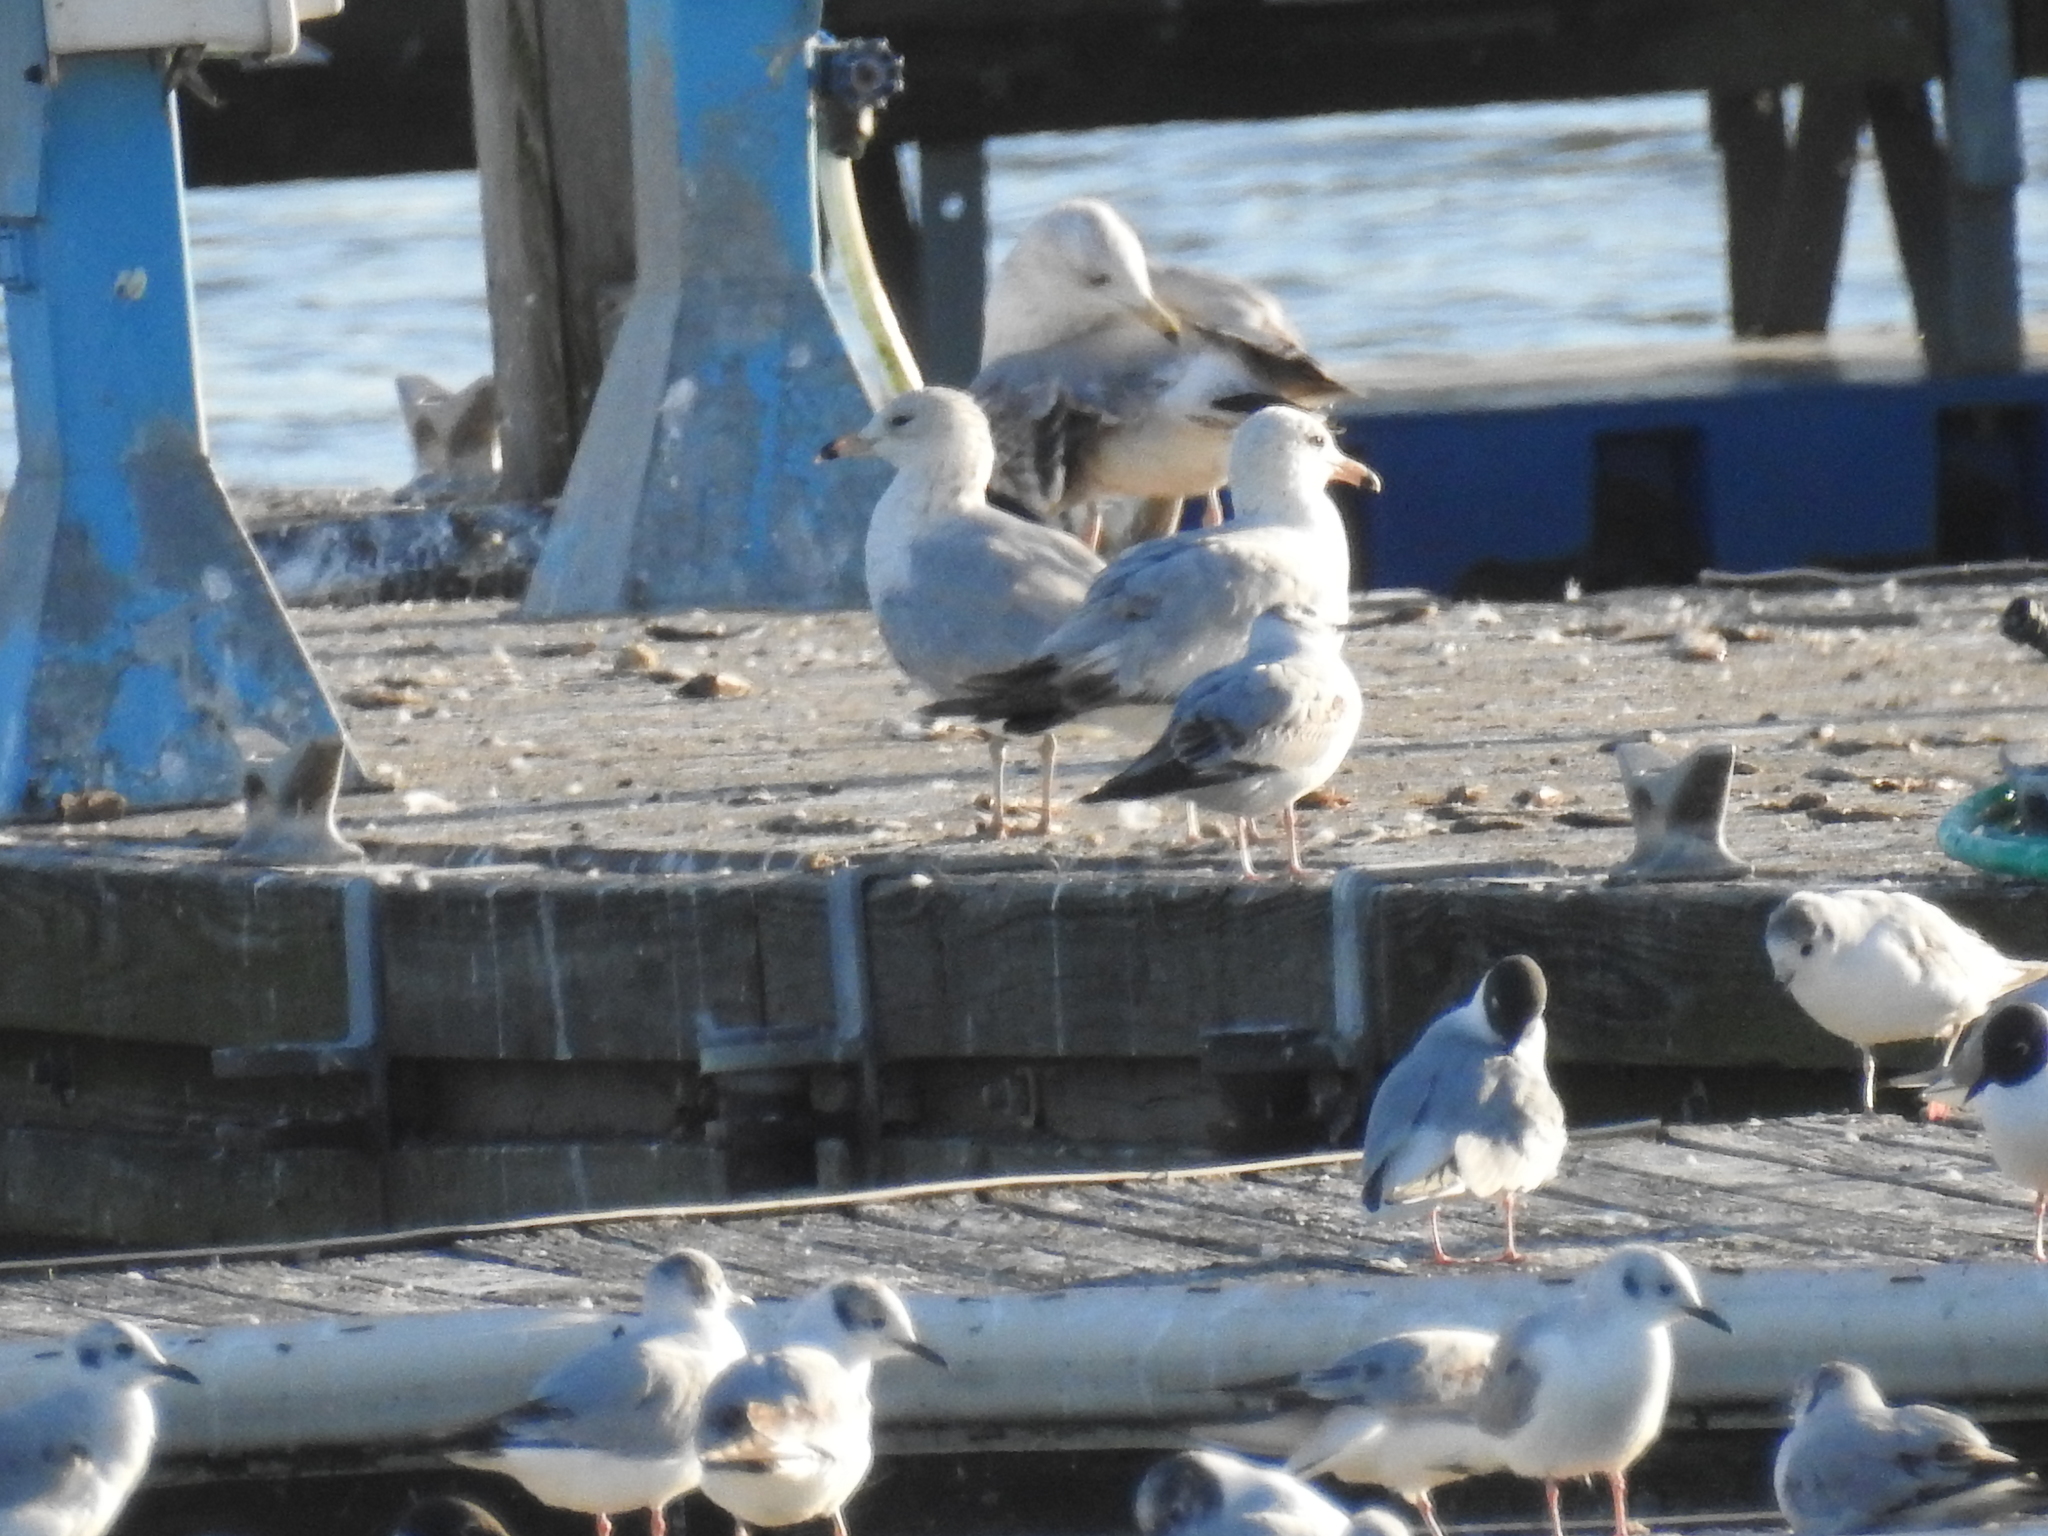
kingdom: Animalia
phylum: Chordata
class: Aves
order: Charadriiformes
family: Laridae
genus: Larus
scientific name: Larus delawarensis
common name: Ring-billed gull
